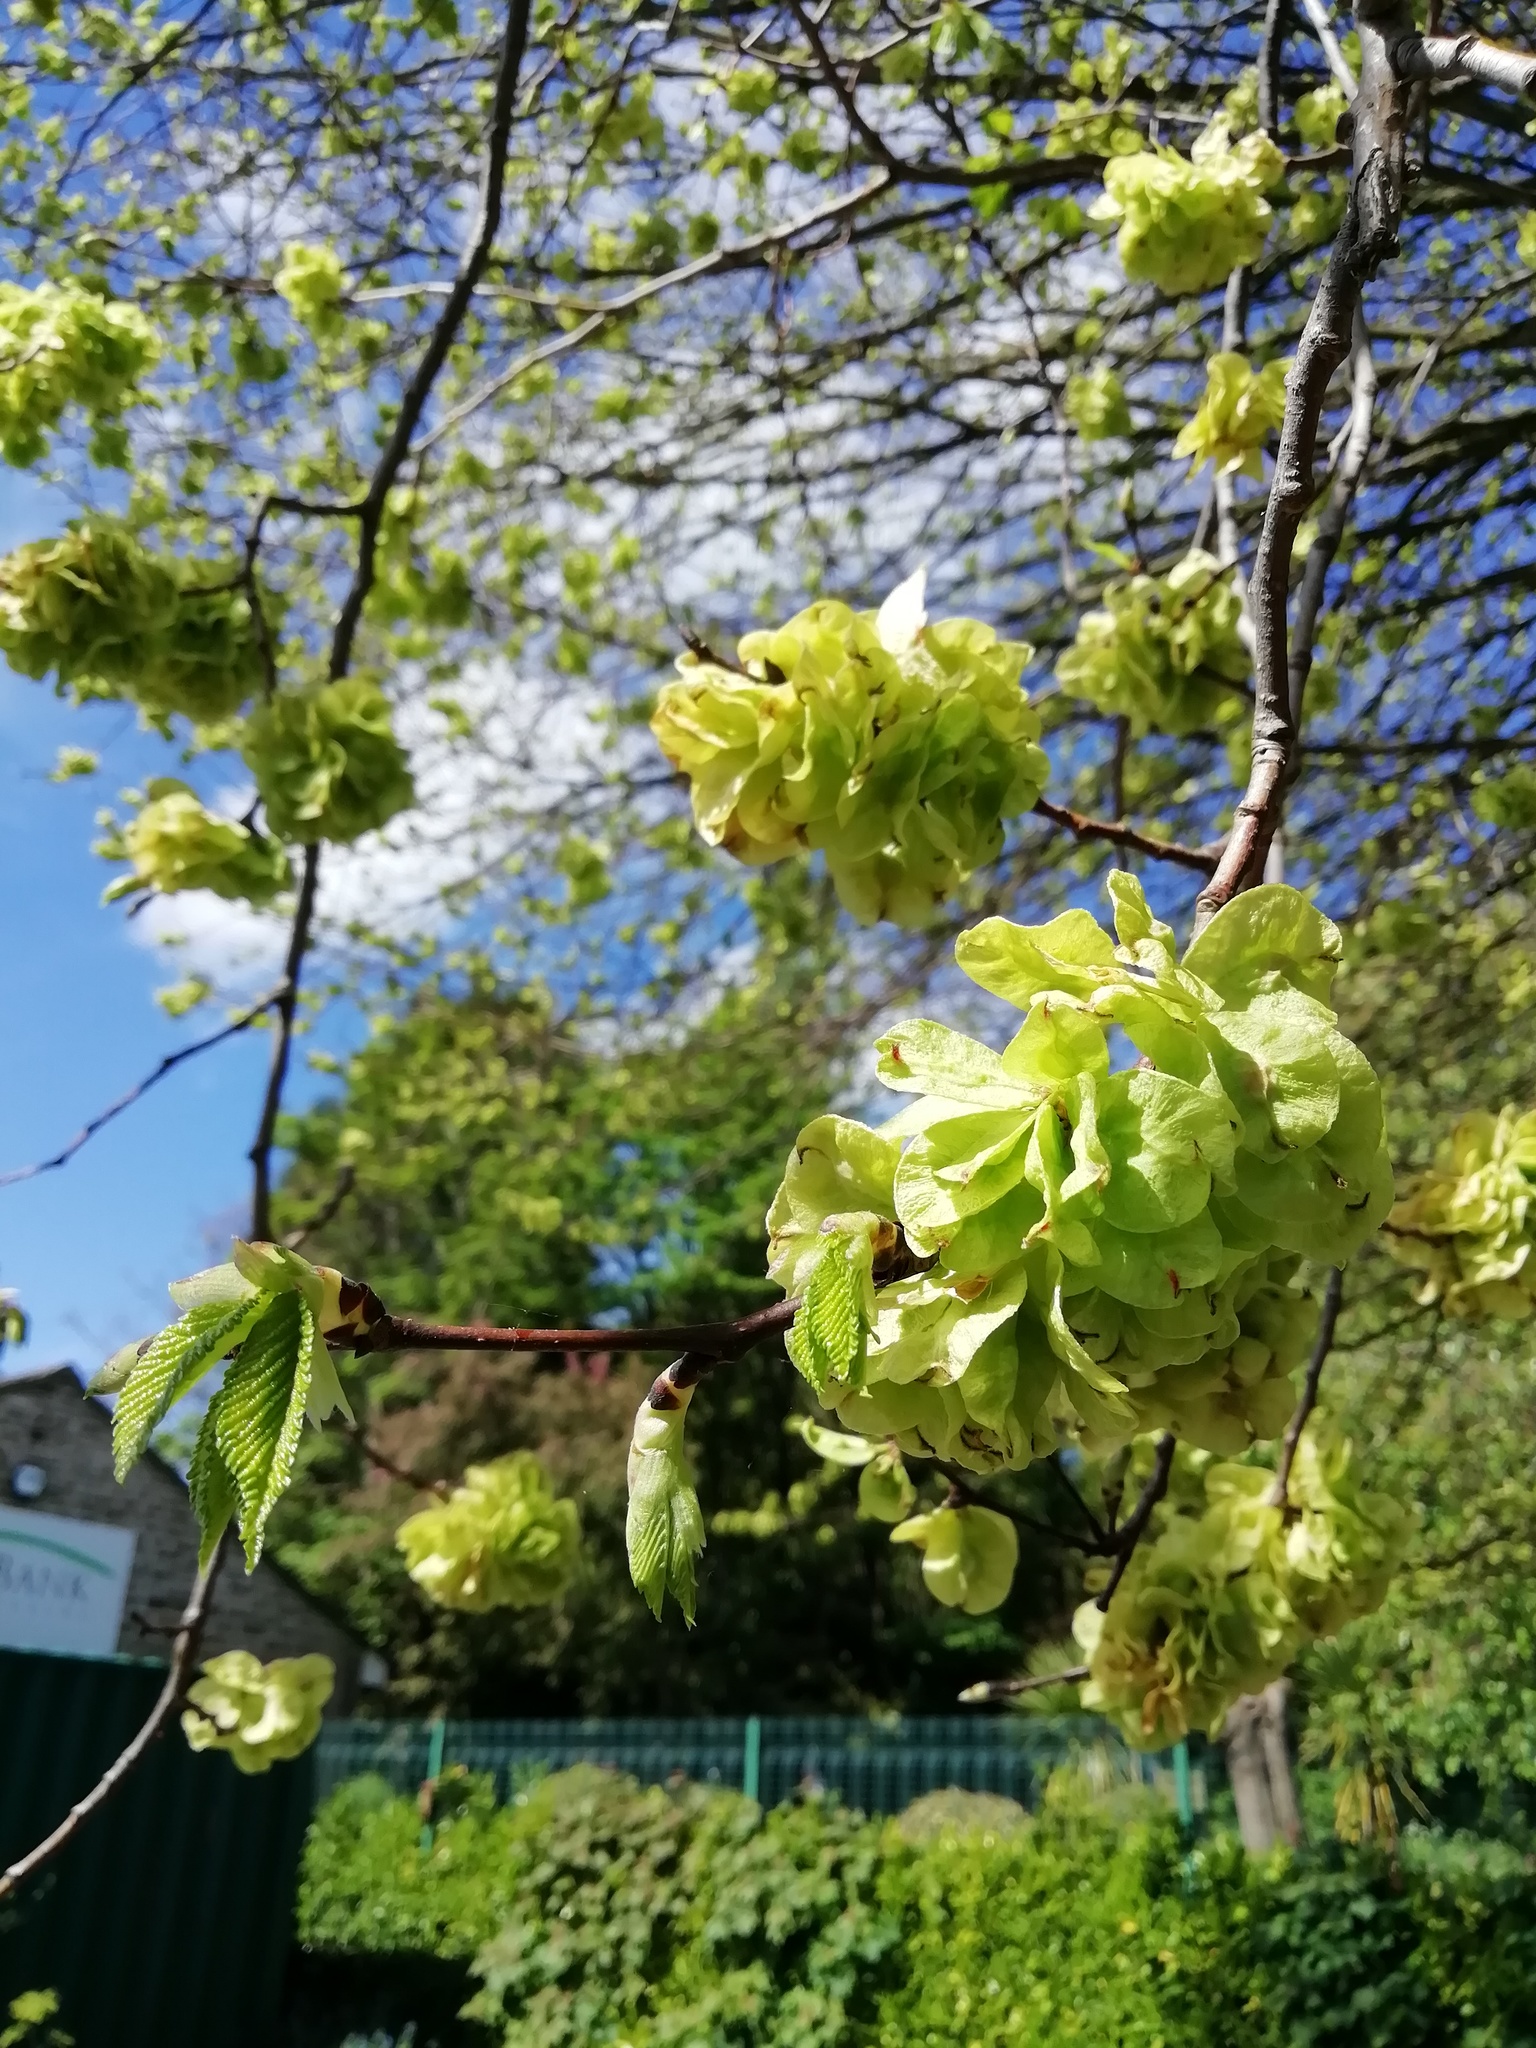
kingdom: Plantae
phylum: Tracheophyta
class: Magnoliopsida
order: Rosales
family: Ulmaceae
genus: Ulmus
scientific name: Ulmus glabra
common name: Wych elm
